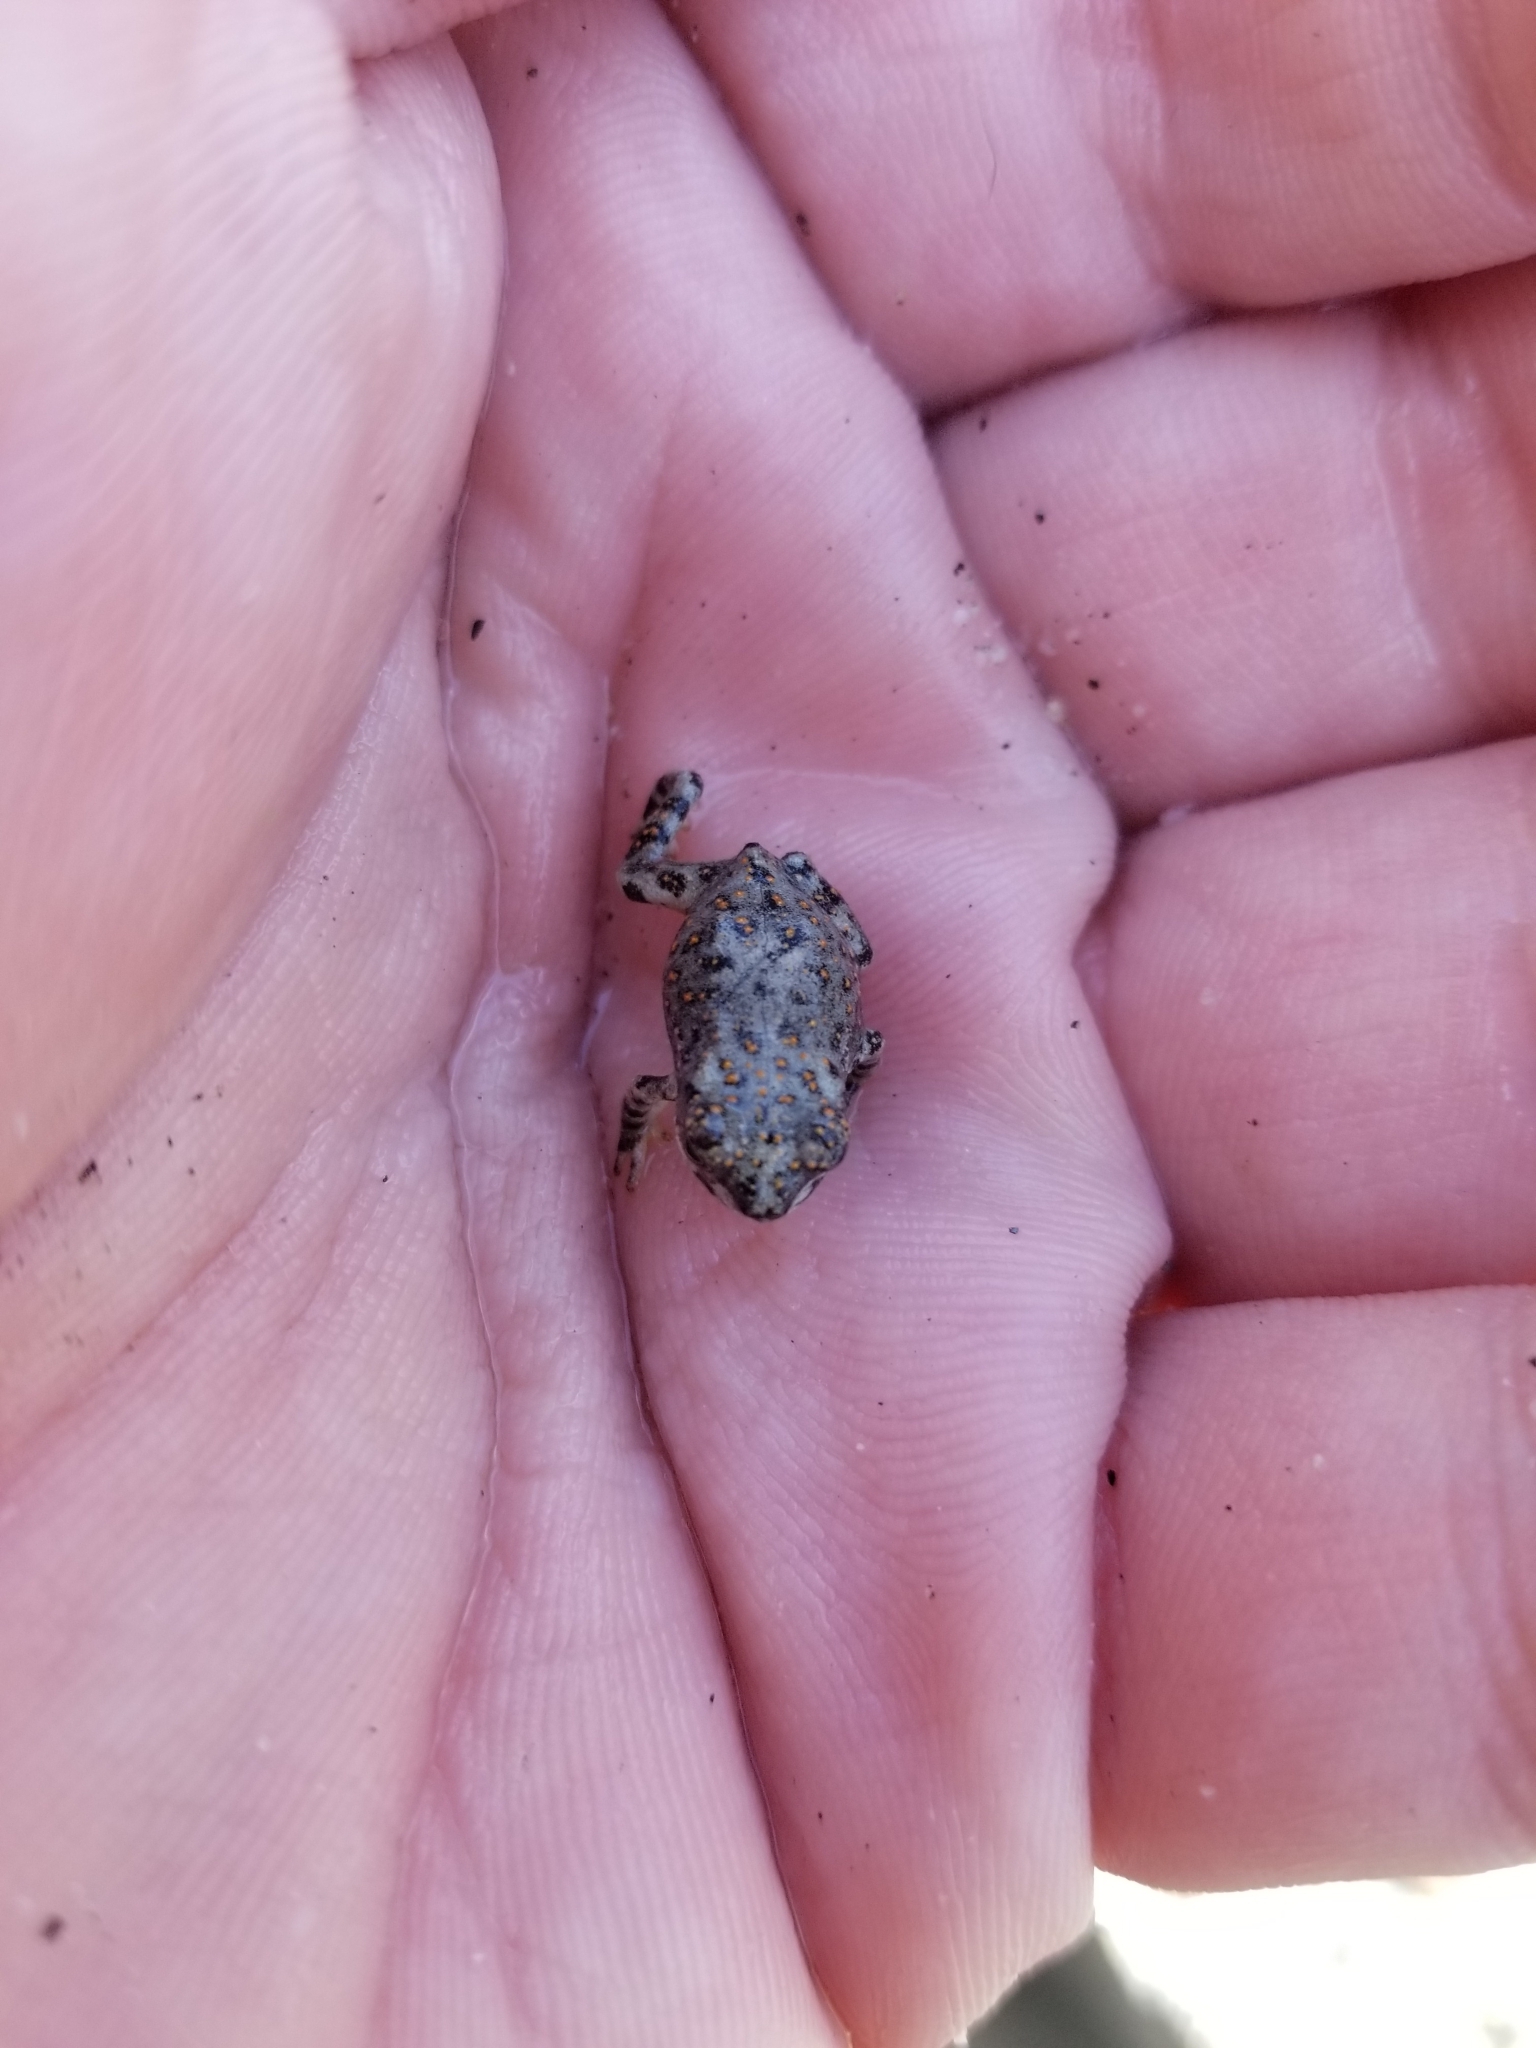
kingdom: Animalia
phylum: Chordata
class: Amphibia
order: Anura
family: Bufonidae
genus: Anaxyrus
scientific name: Anaxyrus punctatus
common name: Red-spotted toad
